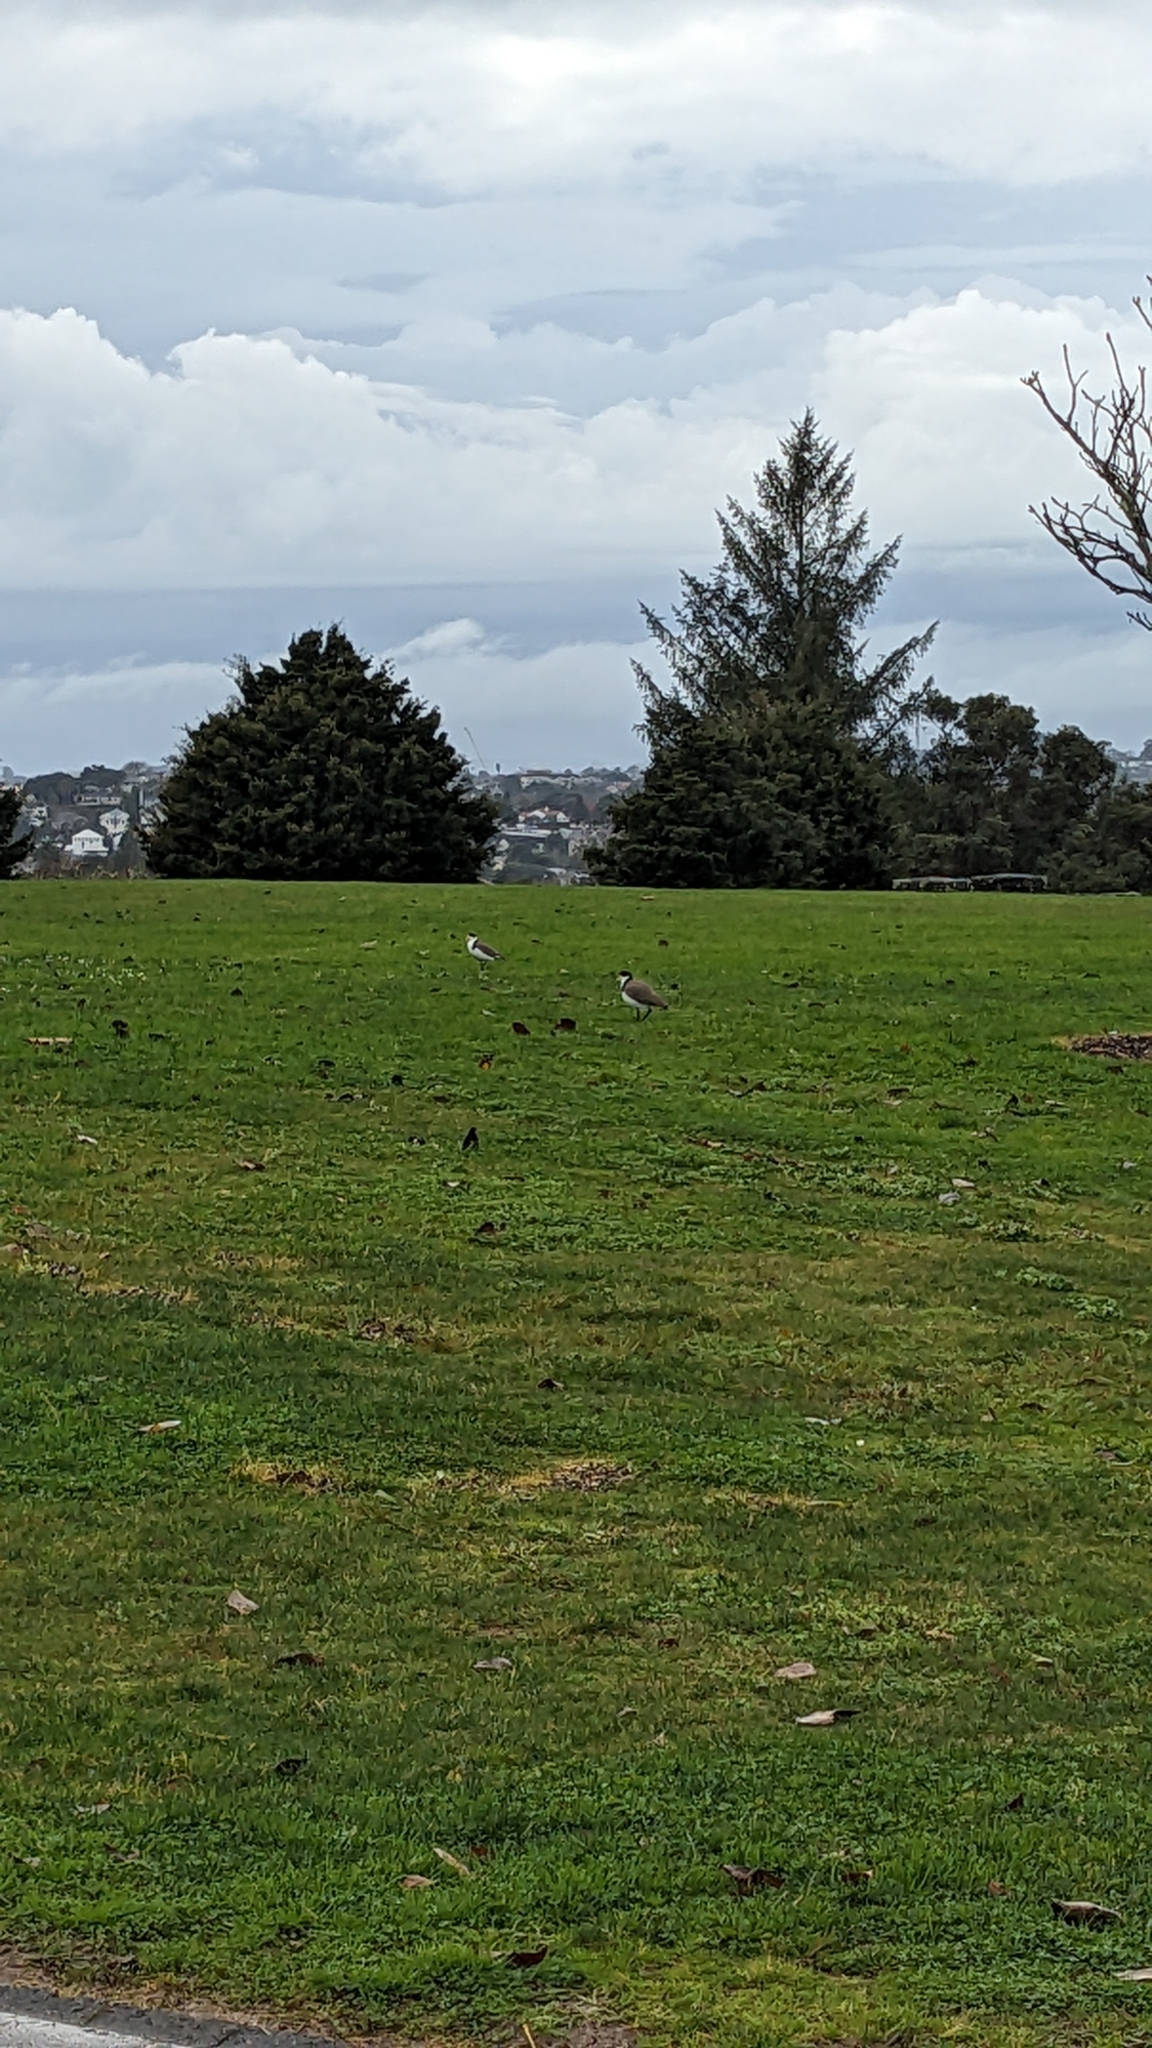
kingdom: Animalia
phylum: Chordata
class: Aves
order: Charadriiformes
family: Charadriidae
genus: Vanellus
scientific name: Vanellus miles
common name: Masked lapwing
